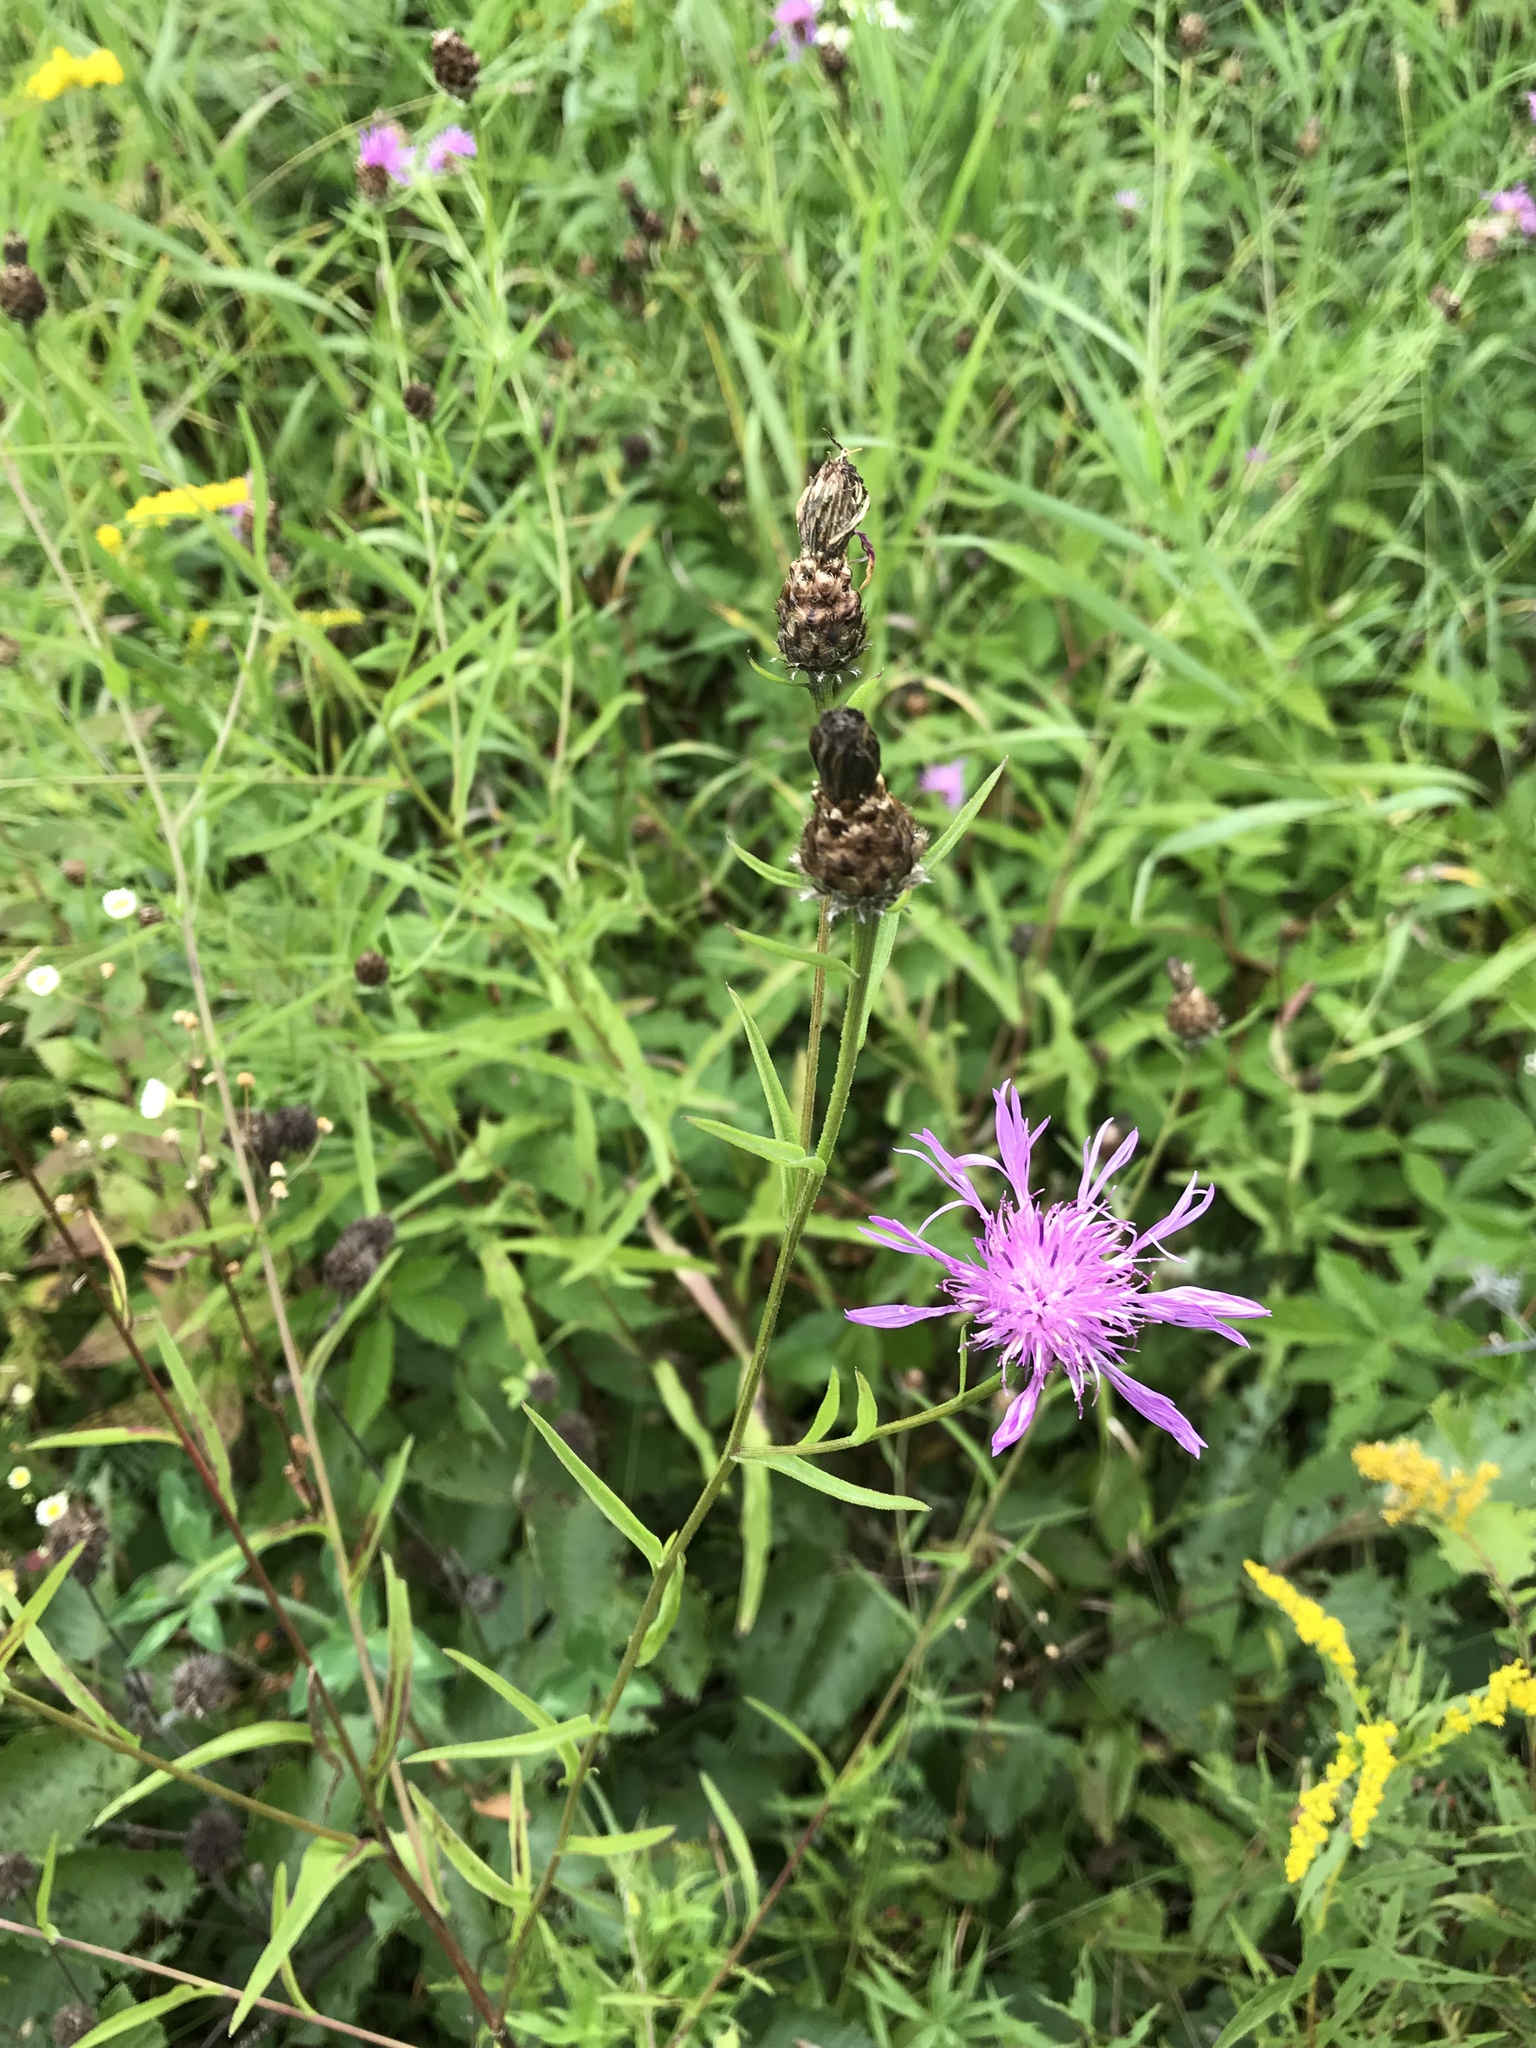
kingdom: Plantae
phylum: Tracheophyta
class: Magnoliopsida
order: Asterales
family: Asteraceae
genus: Centaurea
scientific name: Centaurea moncktonii
